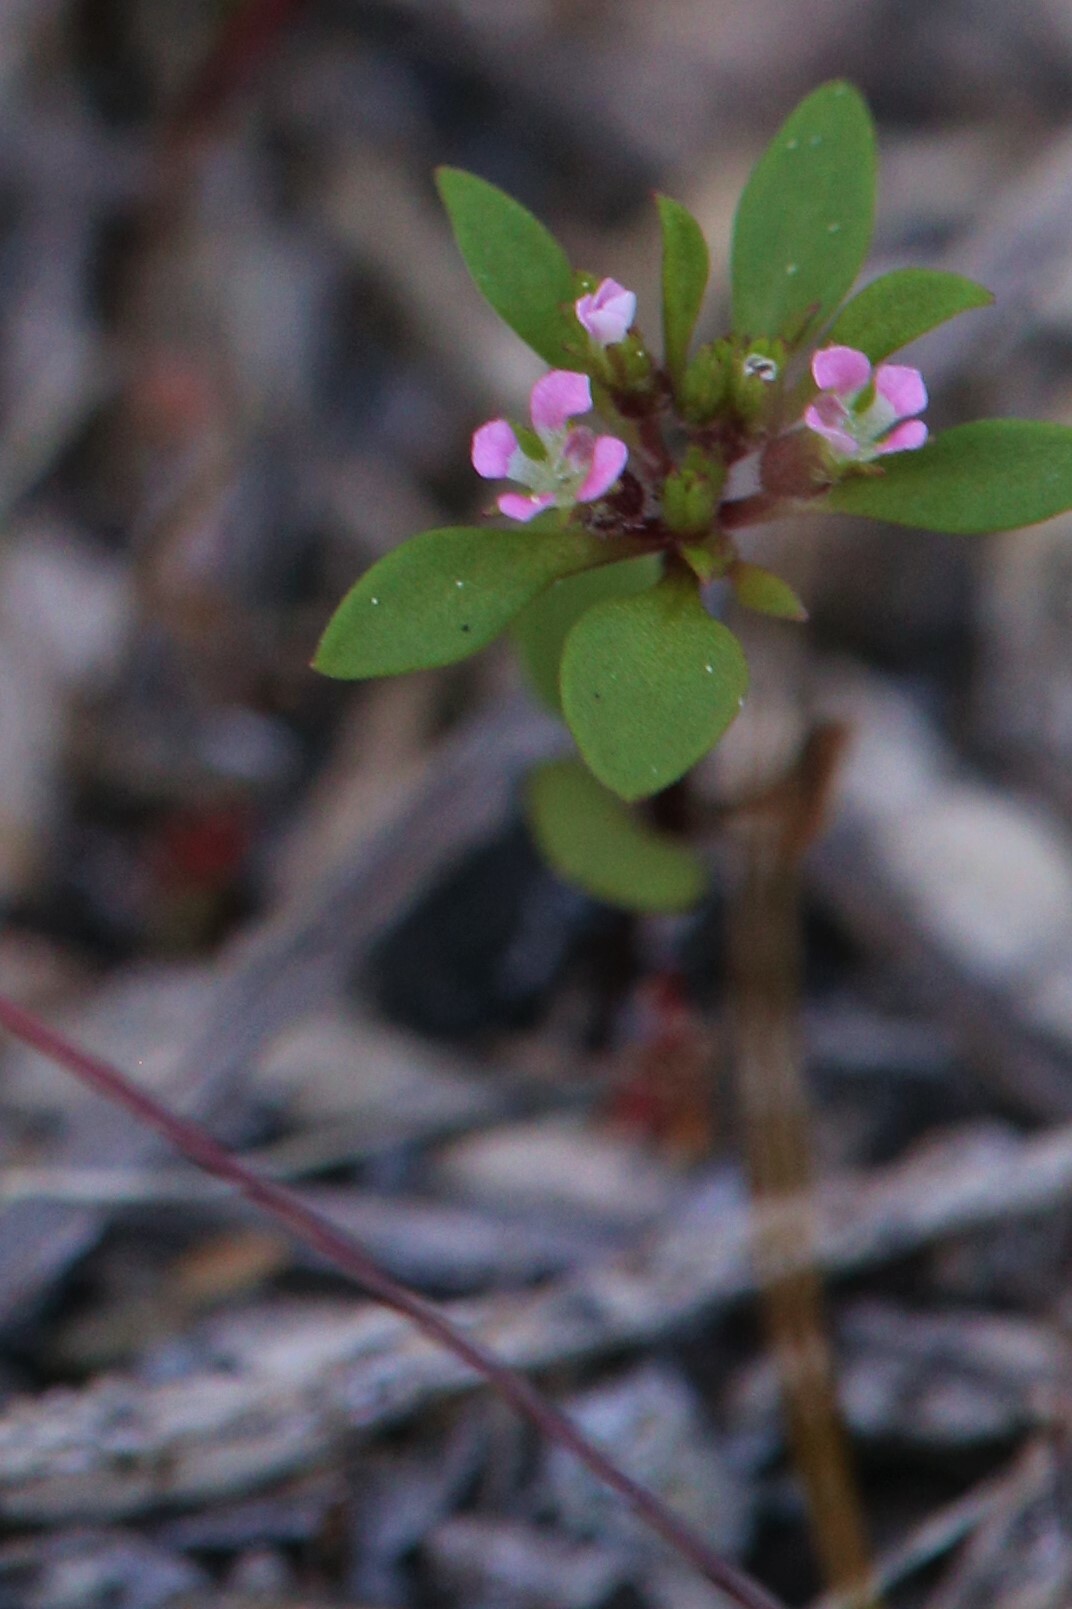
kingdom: Plantae
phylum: Tracheophyta
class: Magnoliopsida
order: Asterales
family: Stylidiaceae
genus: Levenhookia
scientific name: Levenhookia pusilla
